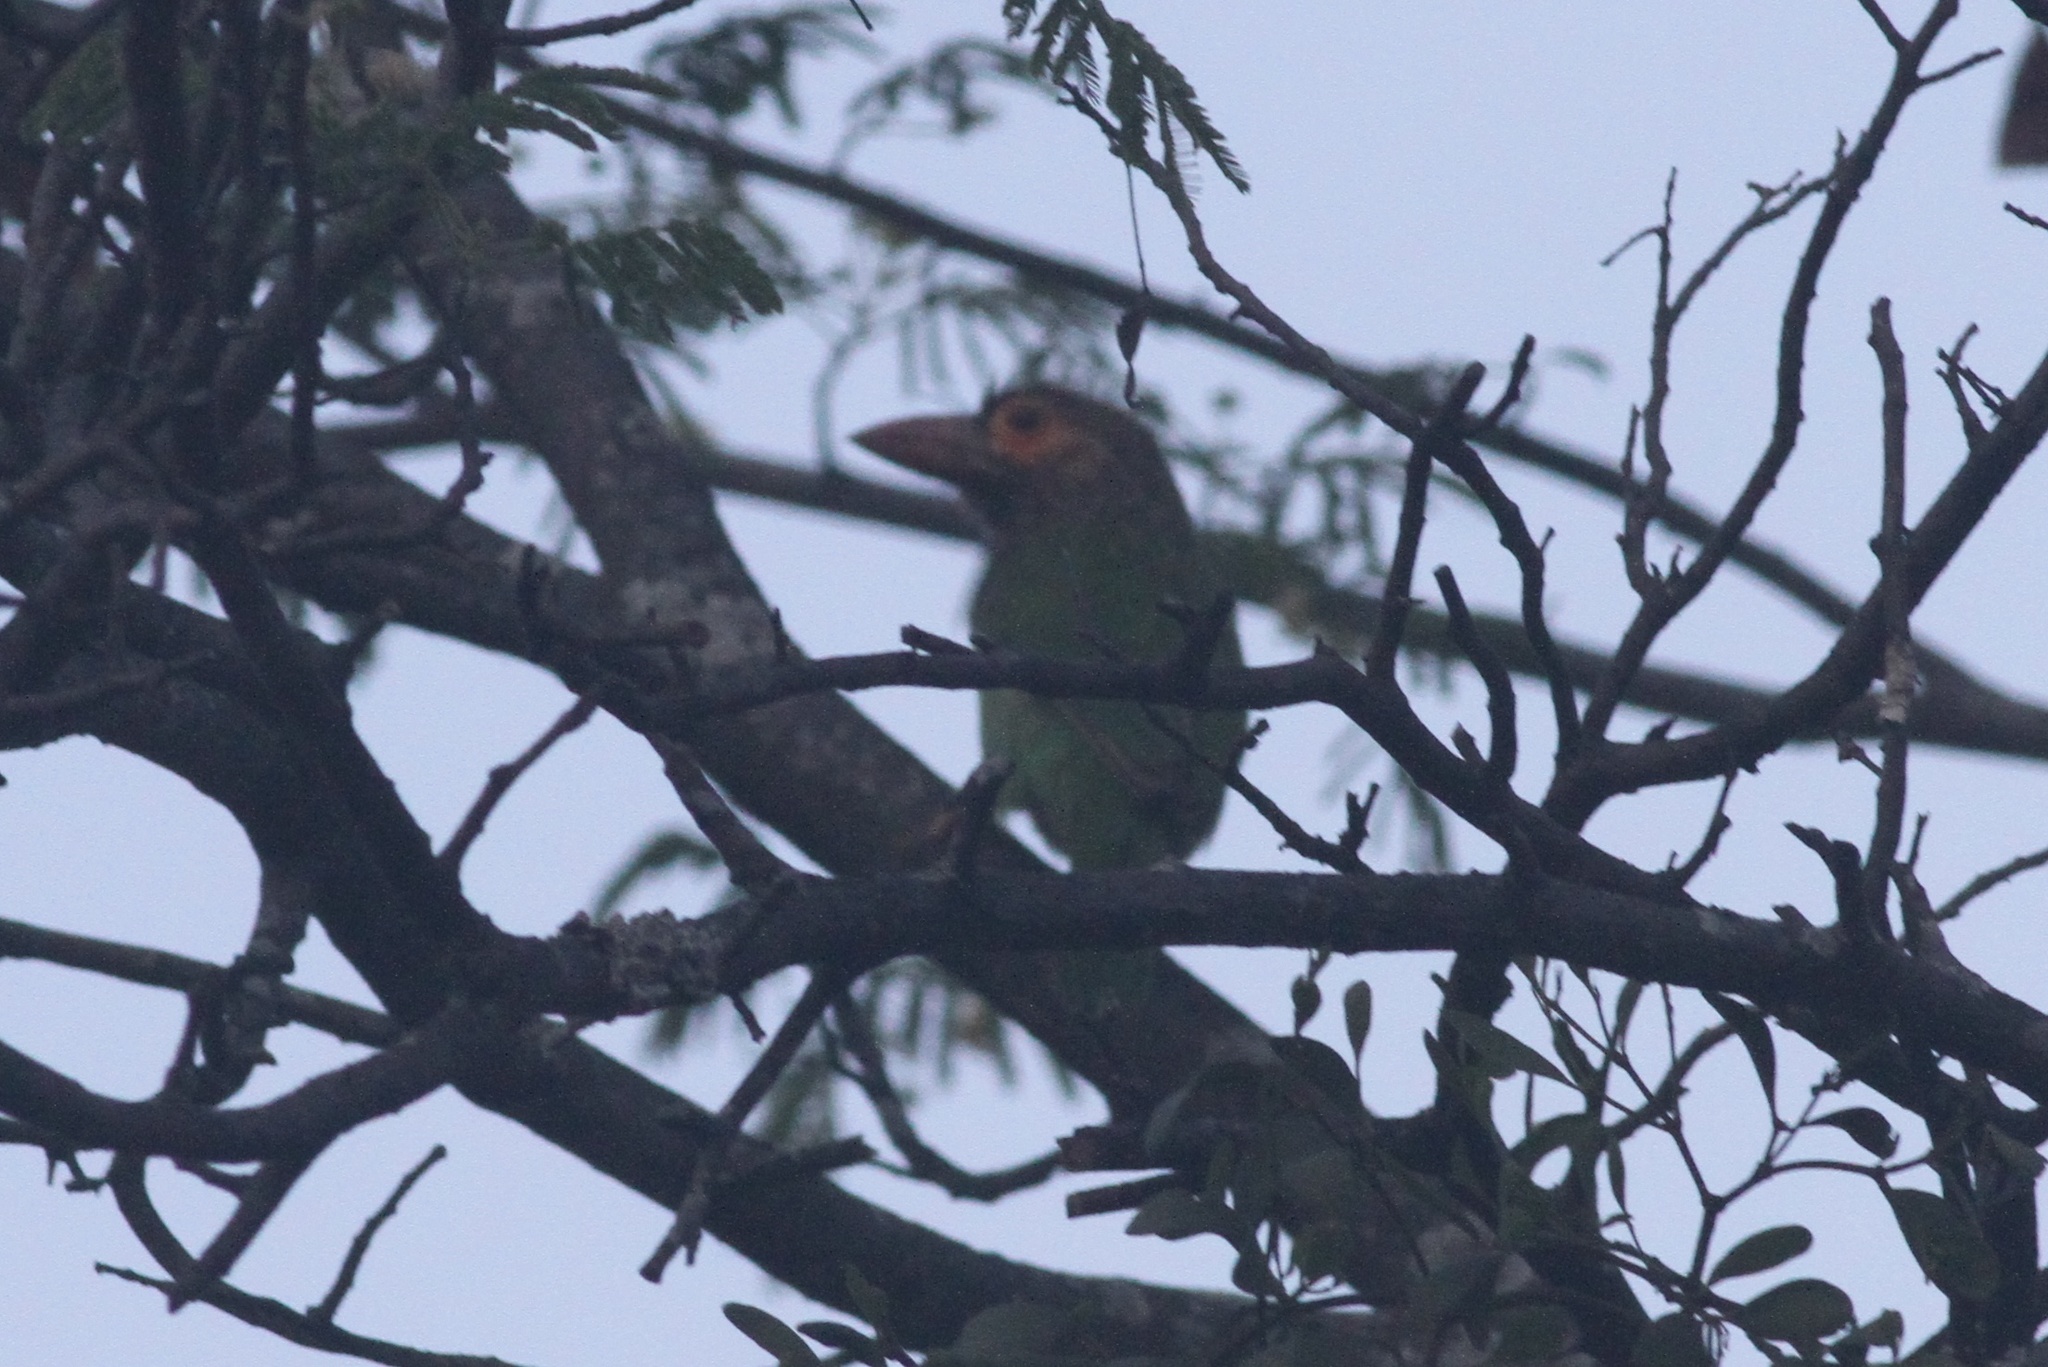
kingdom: Animalia
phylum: Chordata
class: Aves
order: Piciformes
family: Megalaimidae
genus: Psilopogon
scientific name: Psilopogon zeylanicus
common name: Brown-headed barbet
